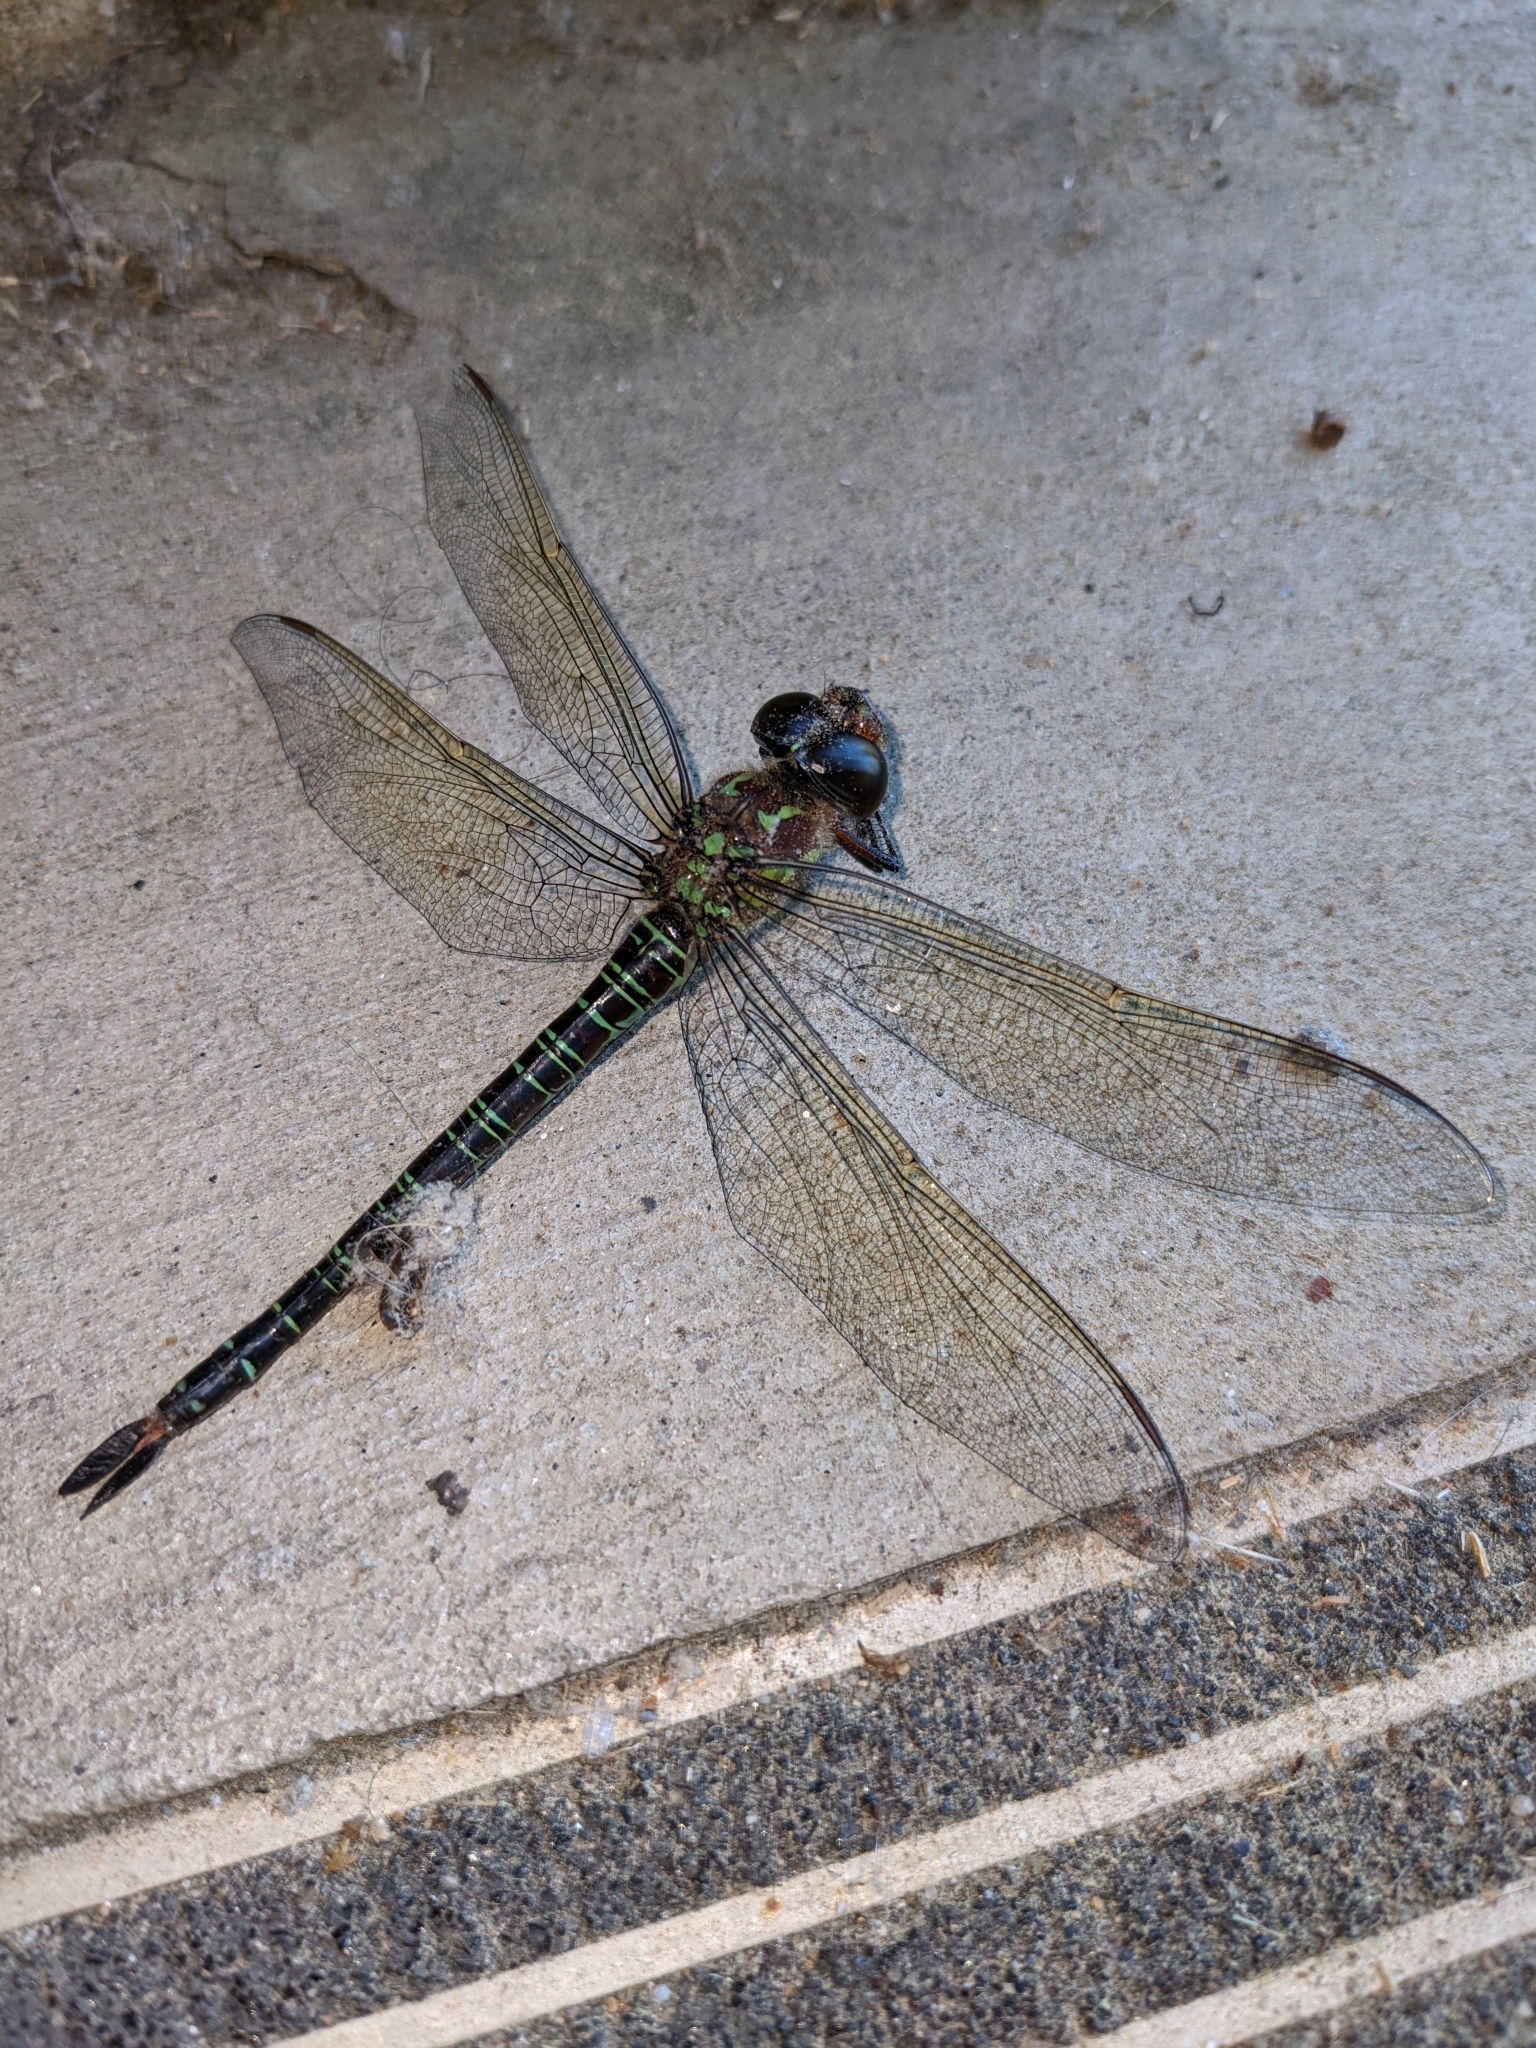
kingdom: Animalia
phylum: Arthropoda
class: Insecta
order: Odonata
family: Aeshnidae
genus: Epiaeschna
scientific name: Epiaeschna heros
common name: Swamp darner
